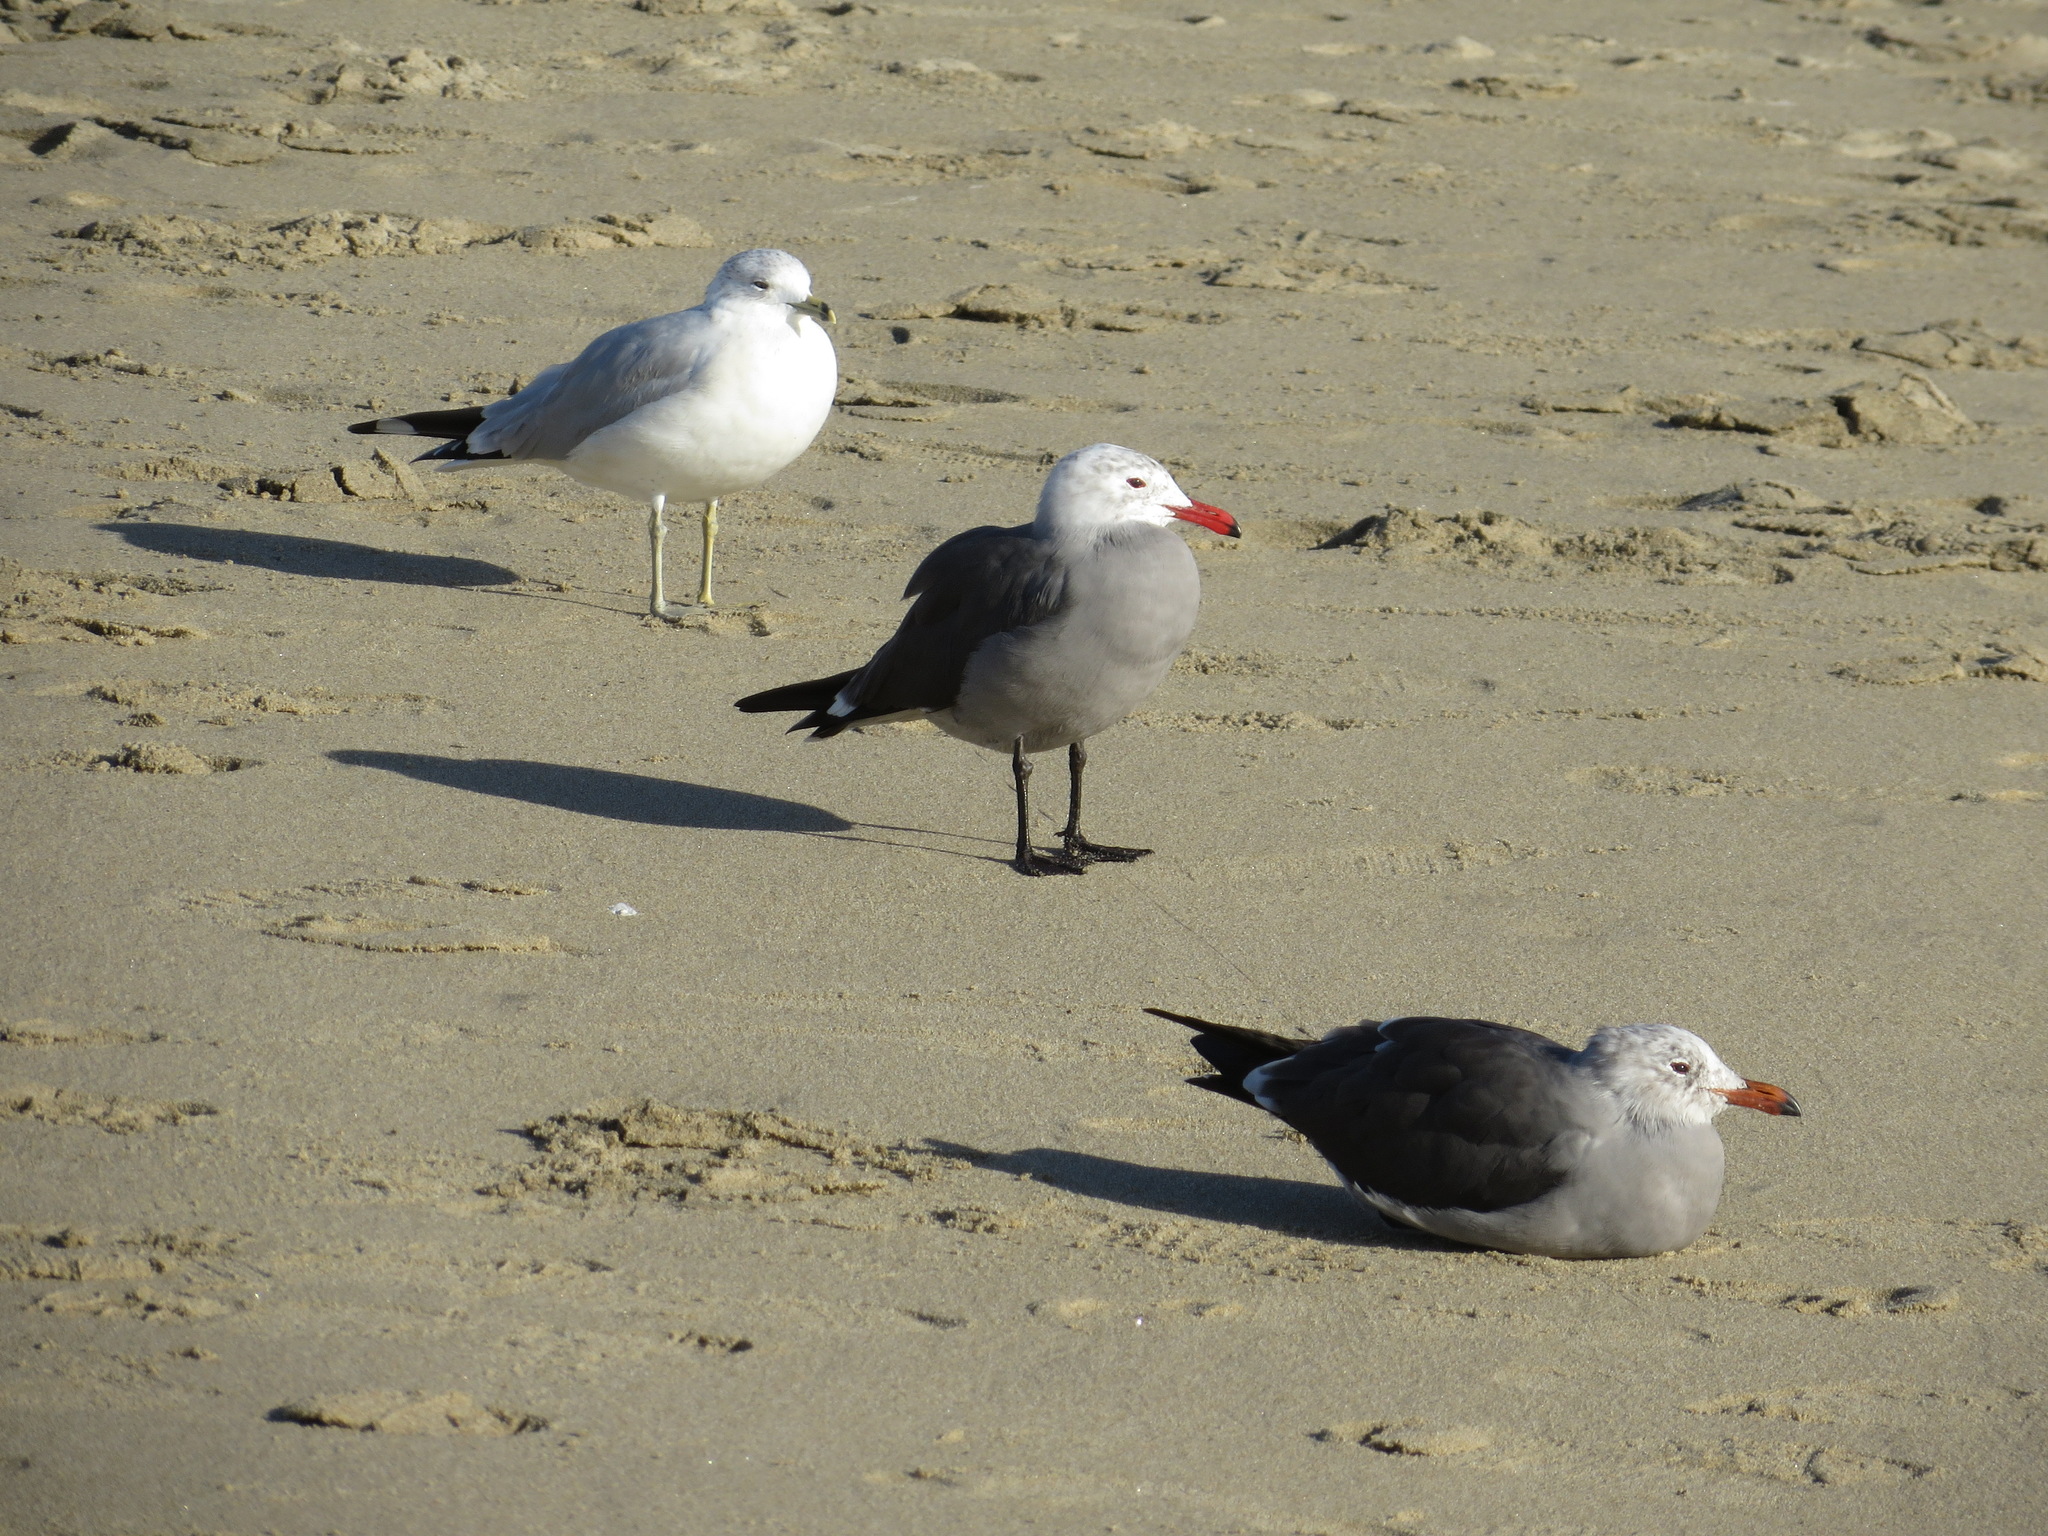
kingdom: Animalia
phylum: Chordata
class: Aves
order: Charadriiformes
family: Laridae
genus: Larus
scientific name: Larus heermanni
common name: Heermann's gull
